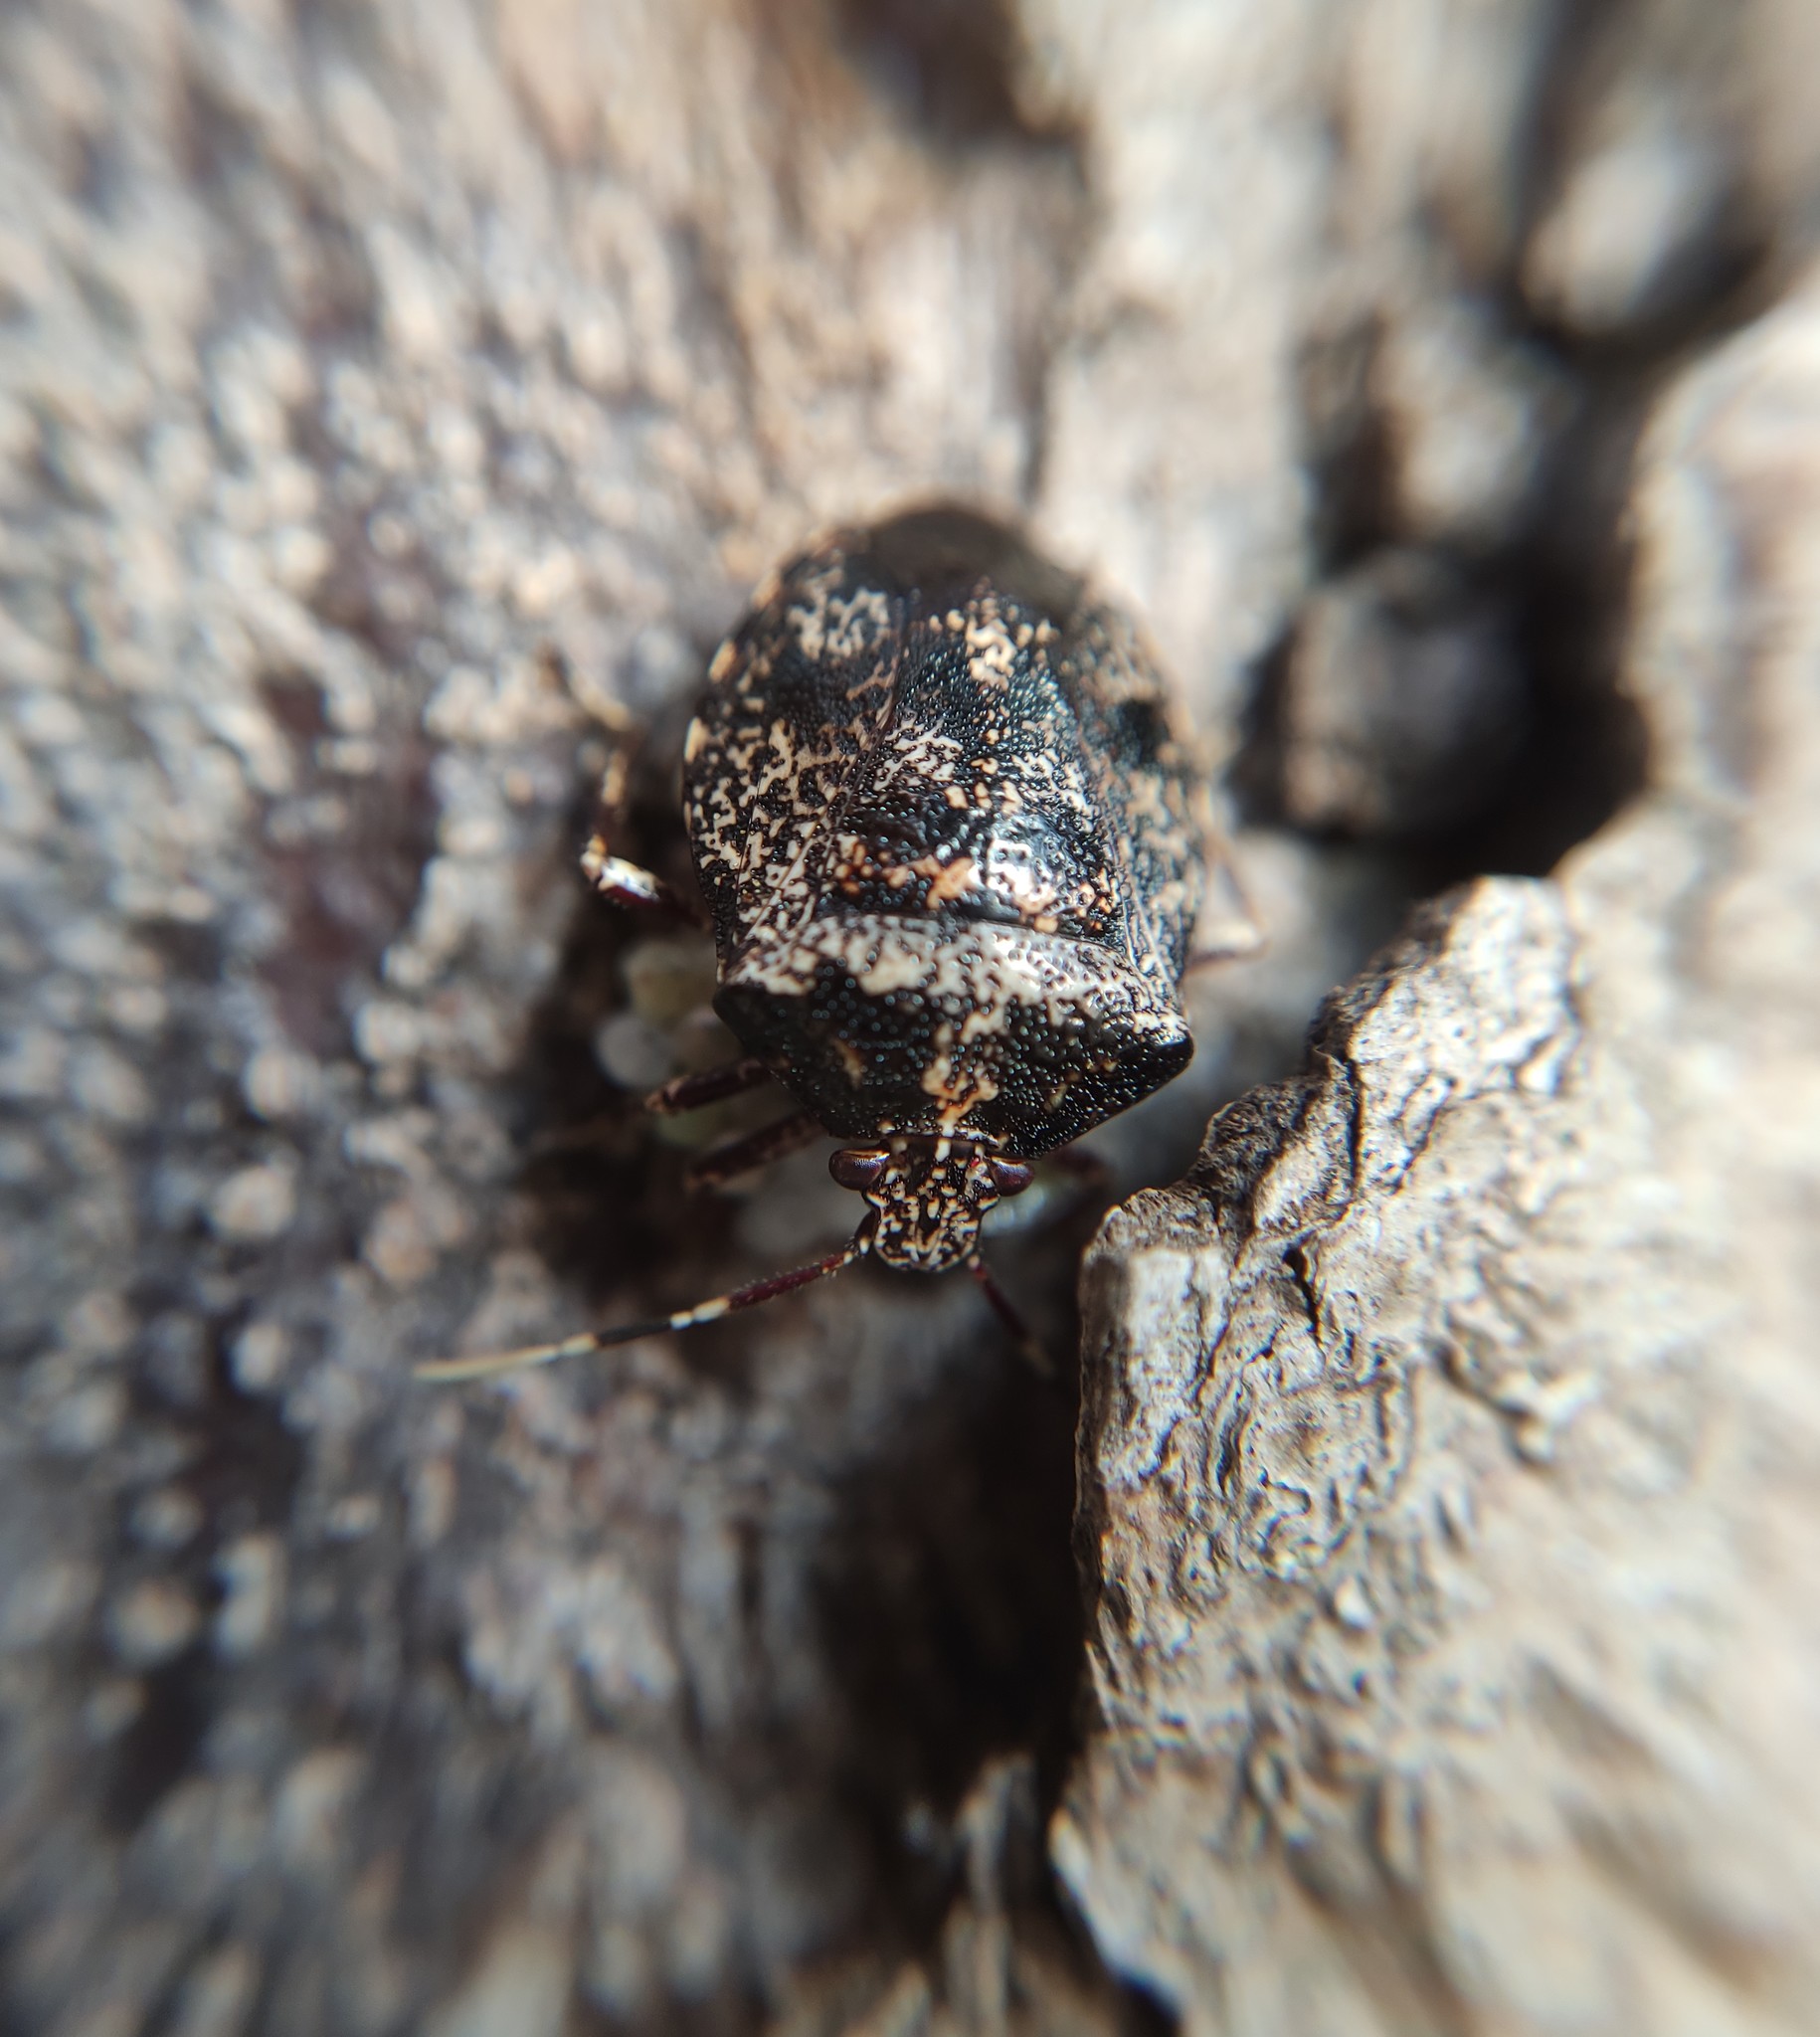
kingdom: Animalia
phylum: Arthropoda
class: Insecta
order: Hemiptera
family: Pentatomidae
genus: Antiteuchus
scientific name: Antiteuchus mixtus
